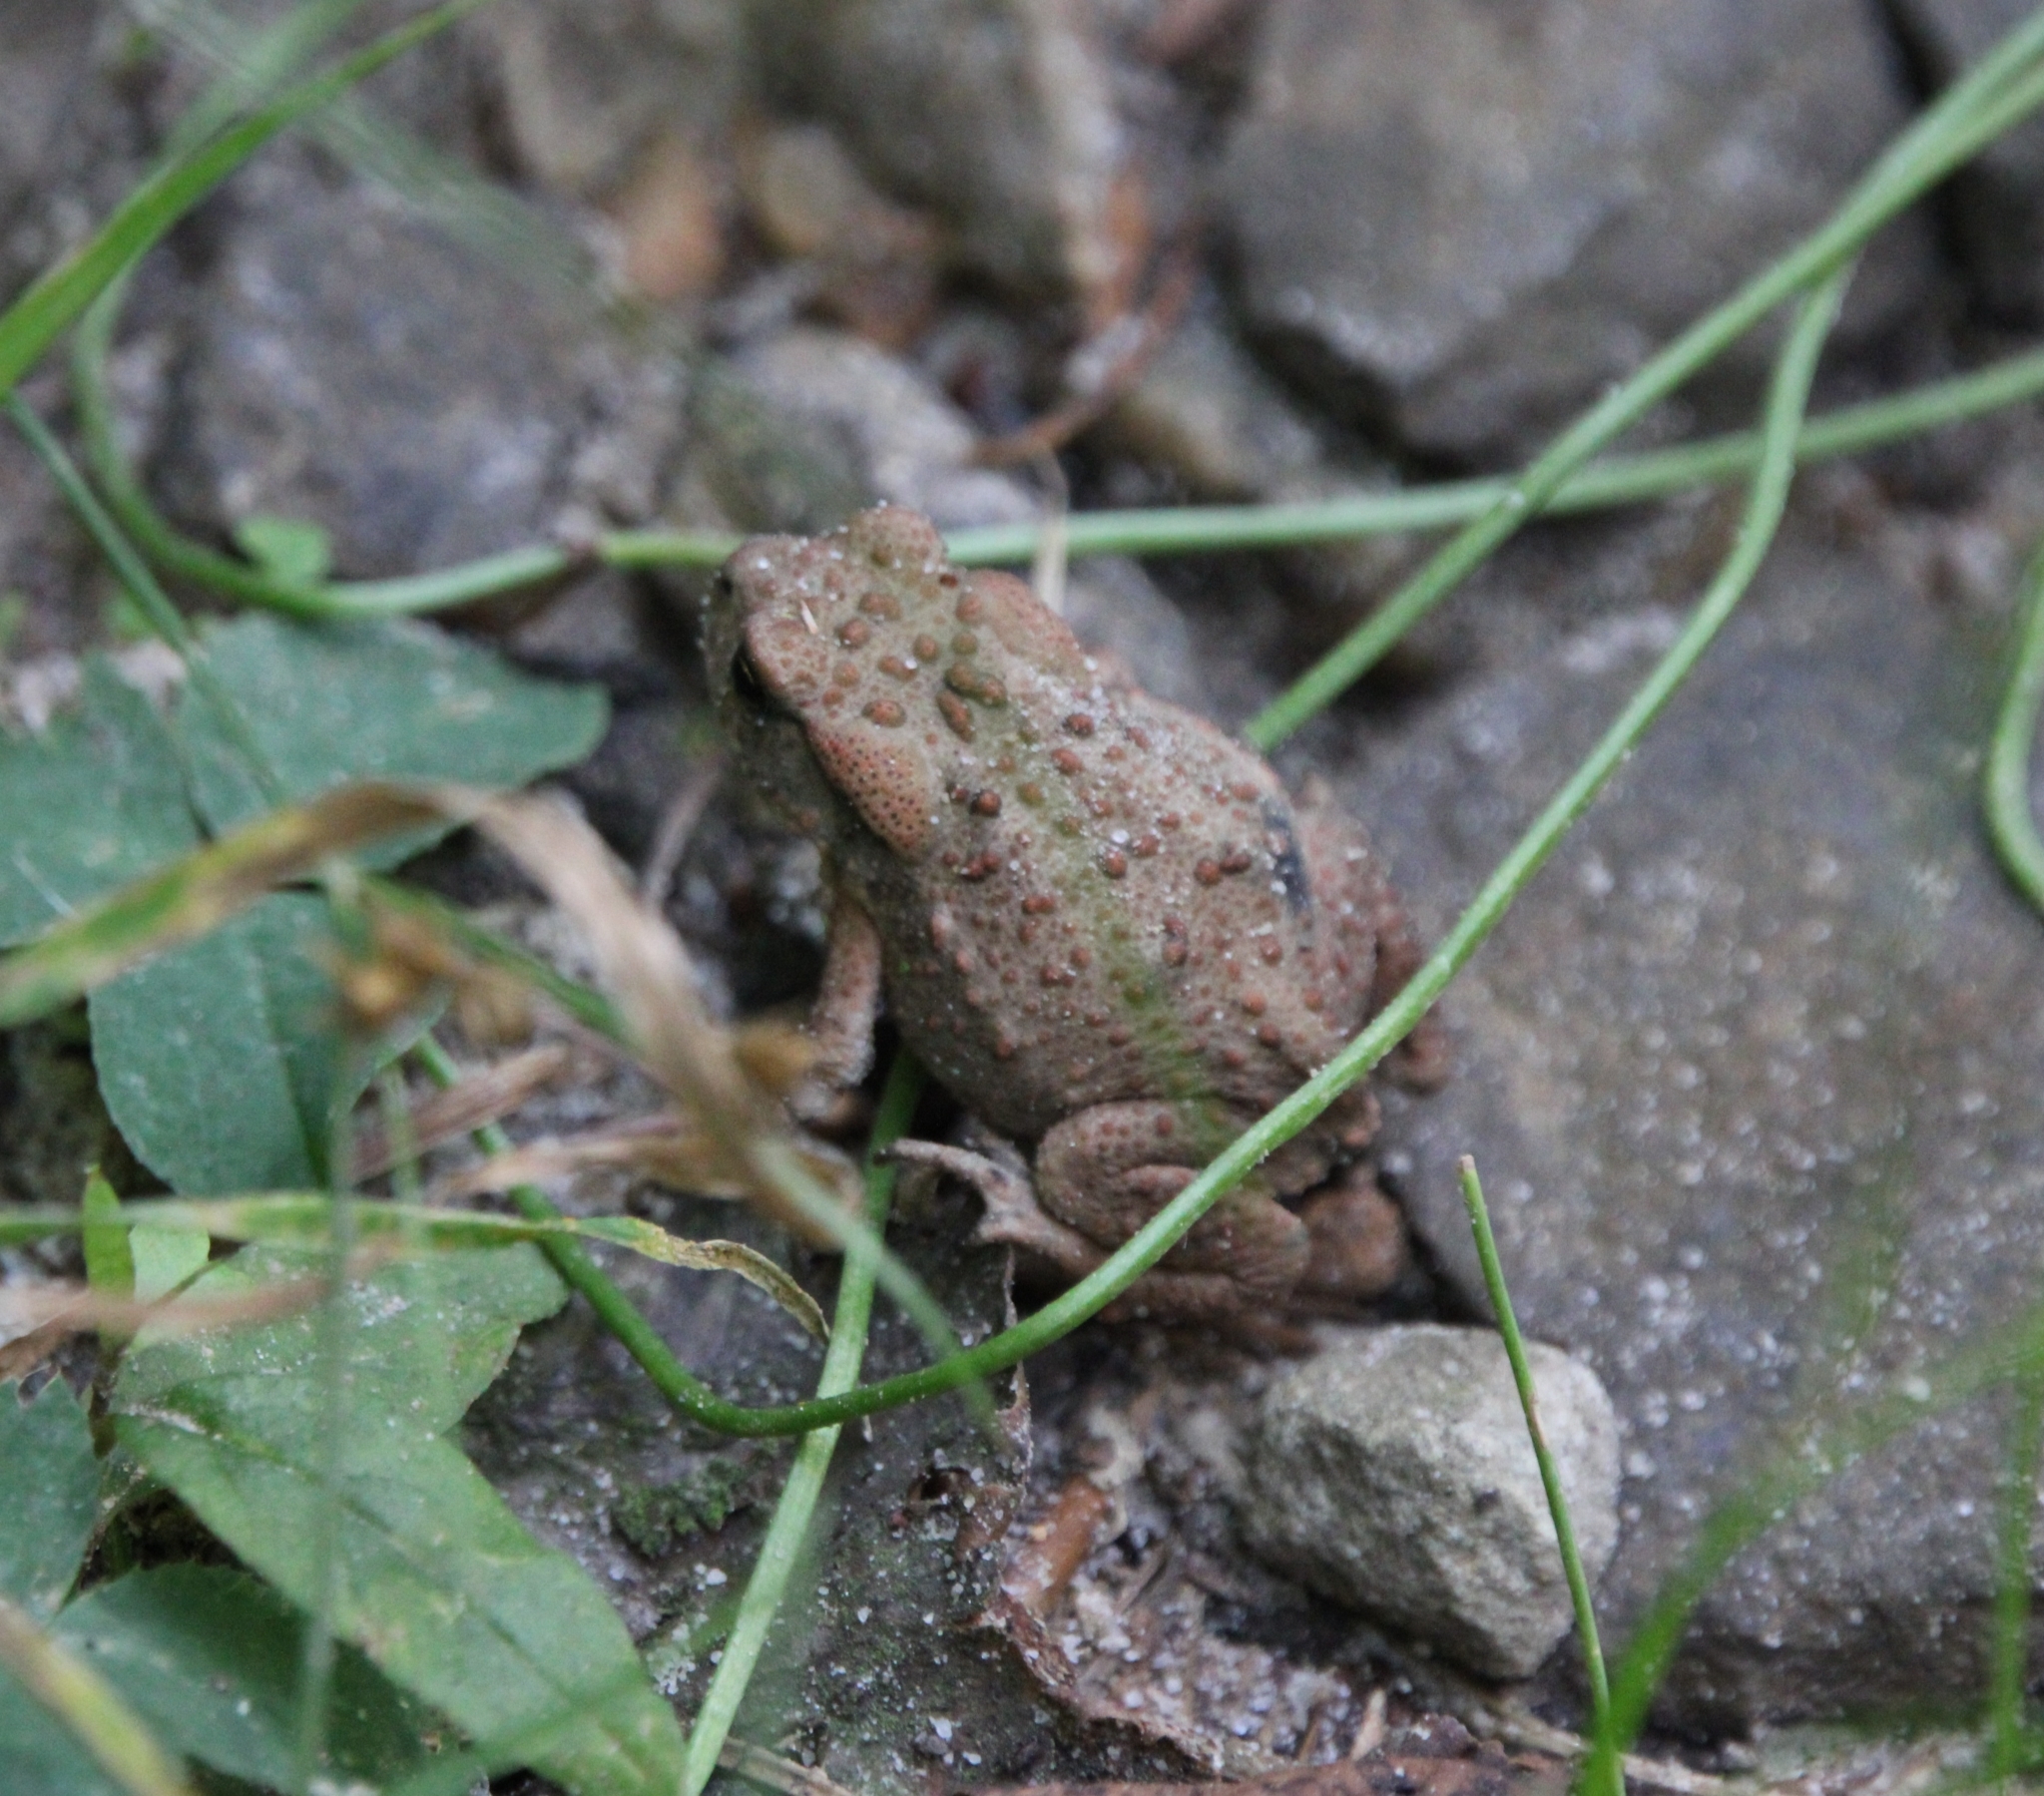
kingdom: Animalia
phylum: Chordata
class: Amphibia
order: Anura
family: Bufonidae
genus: Bufo
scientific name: Bufo bufo
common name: Common toad
